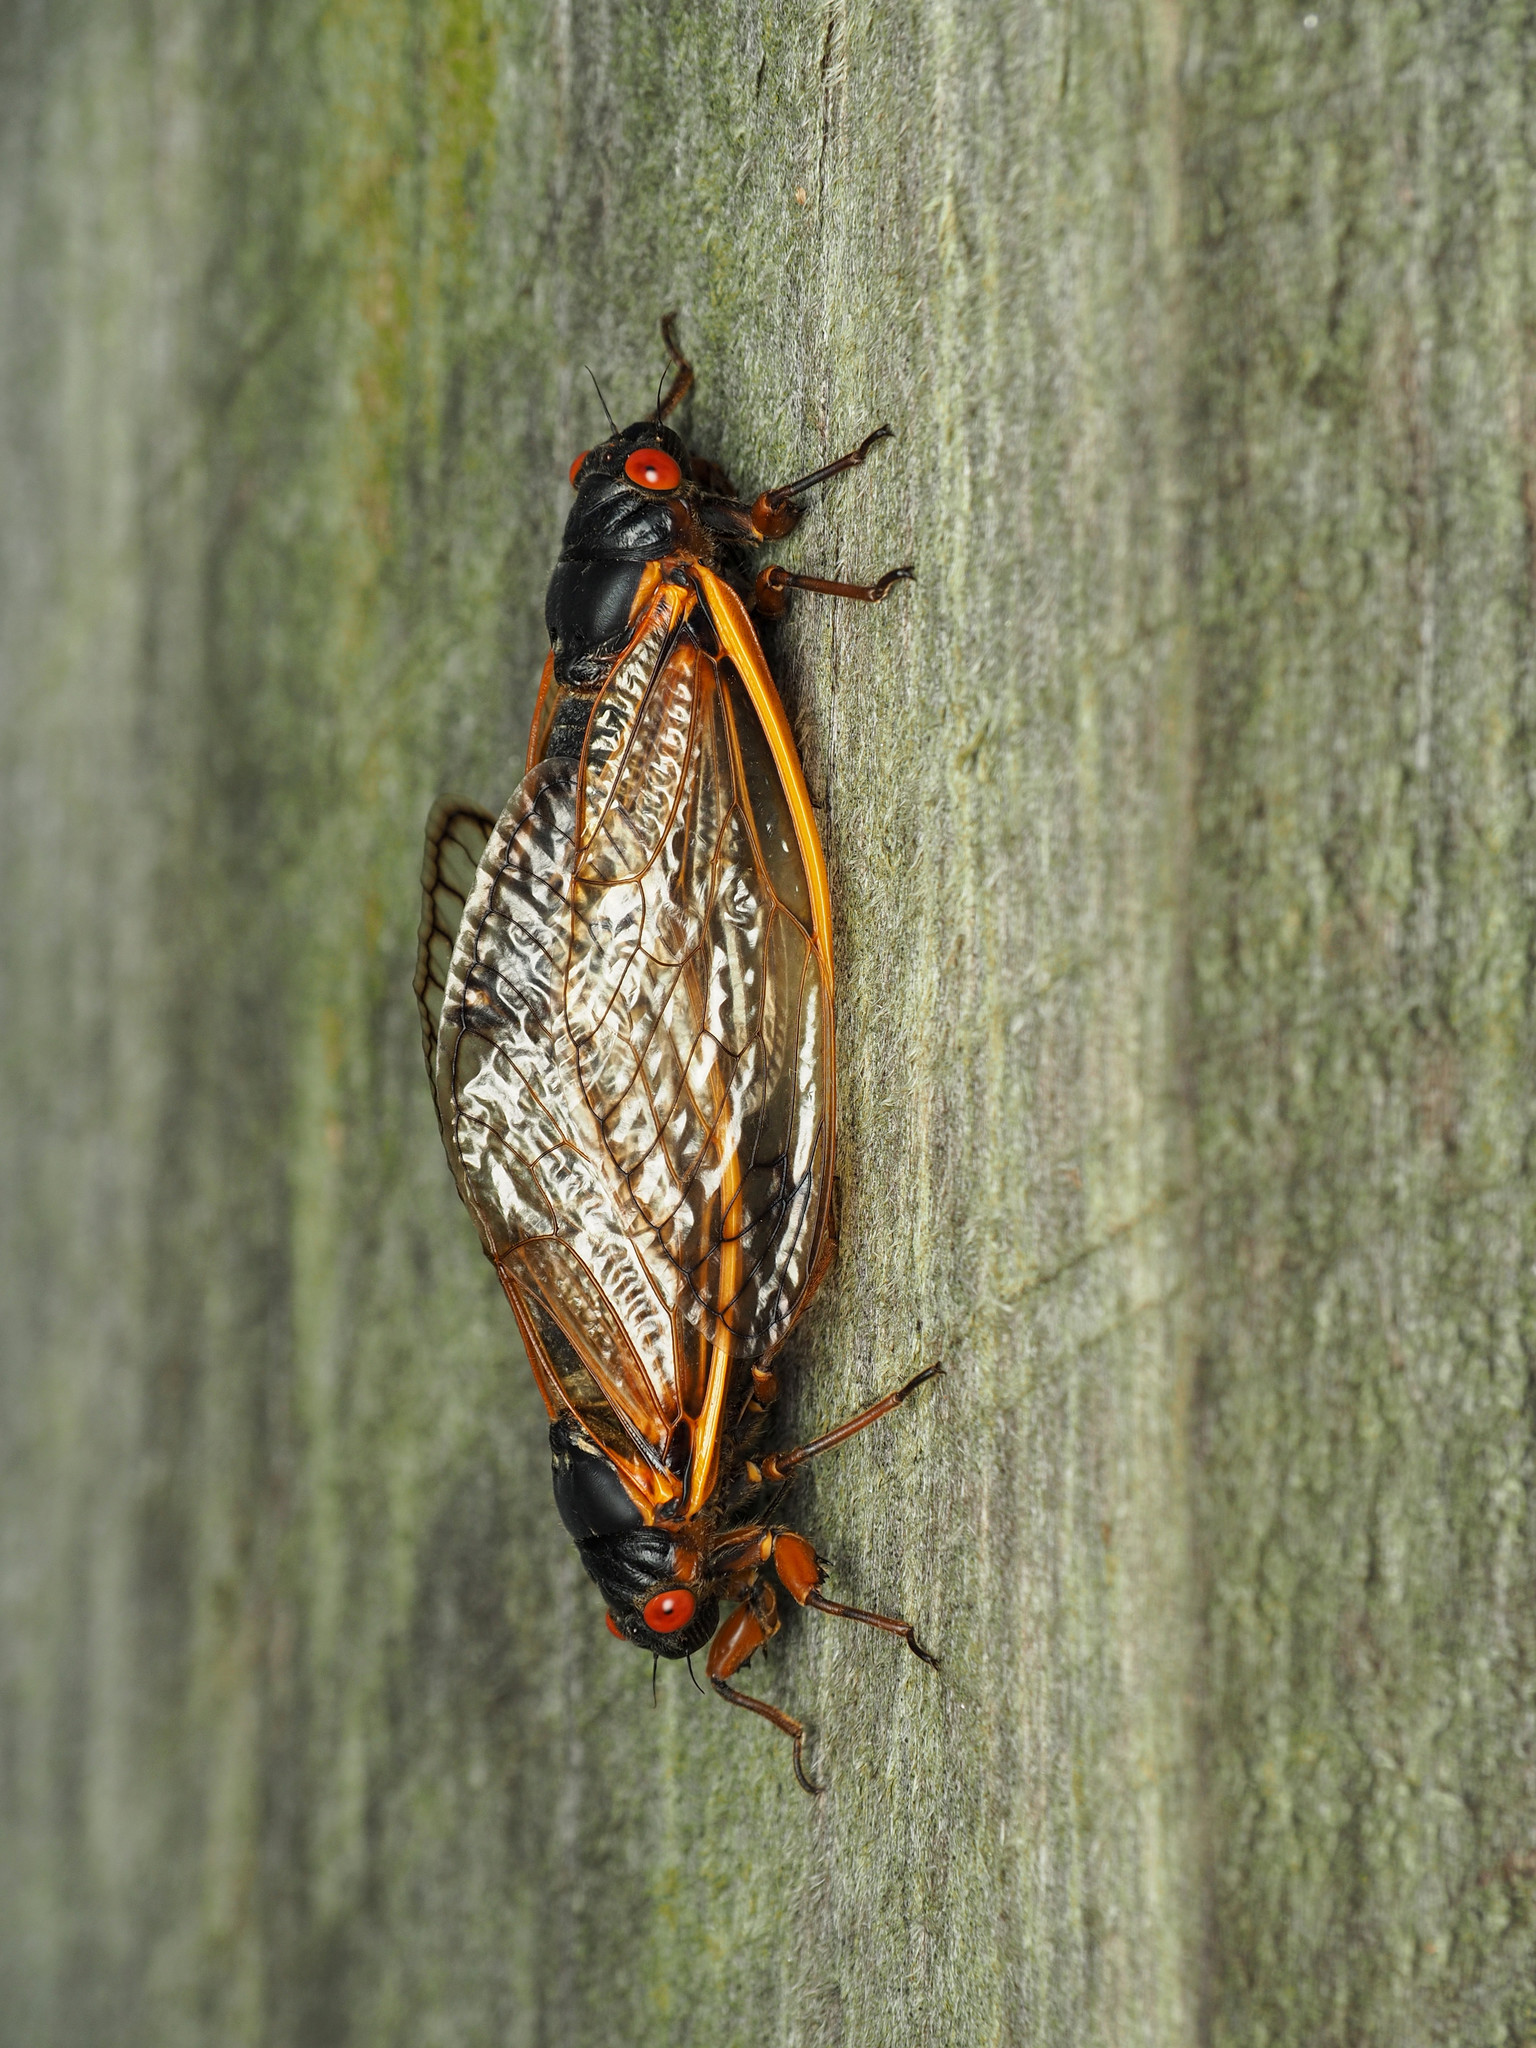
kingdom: Animalia
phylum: Arthropoda
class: Insecta
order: Hemiptera
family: Cicadidae
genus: Magicicada
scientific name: Magicicada septendecim
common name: Periodical cicada
